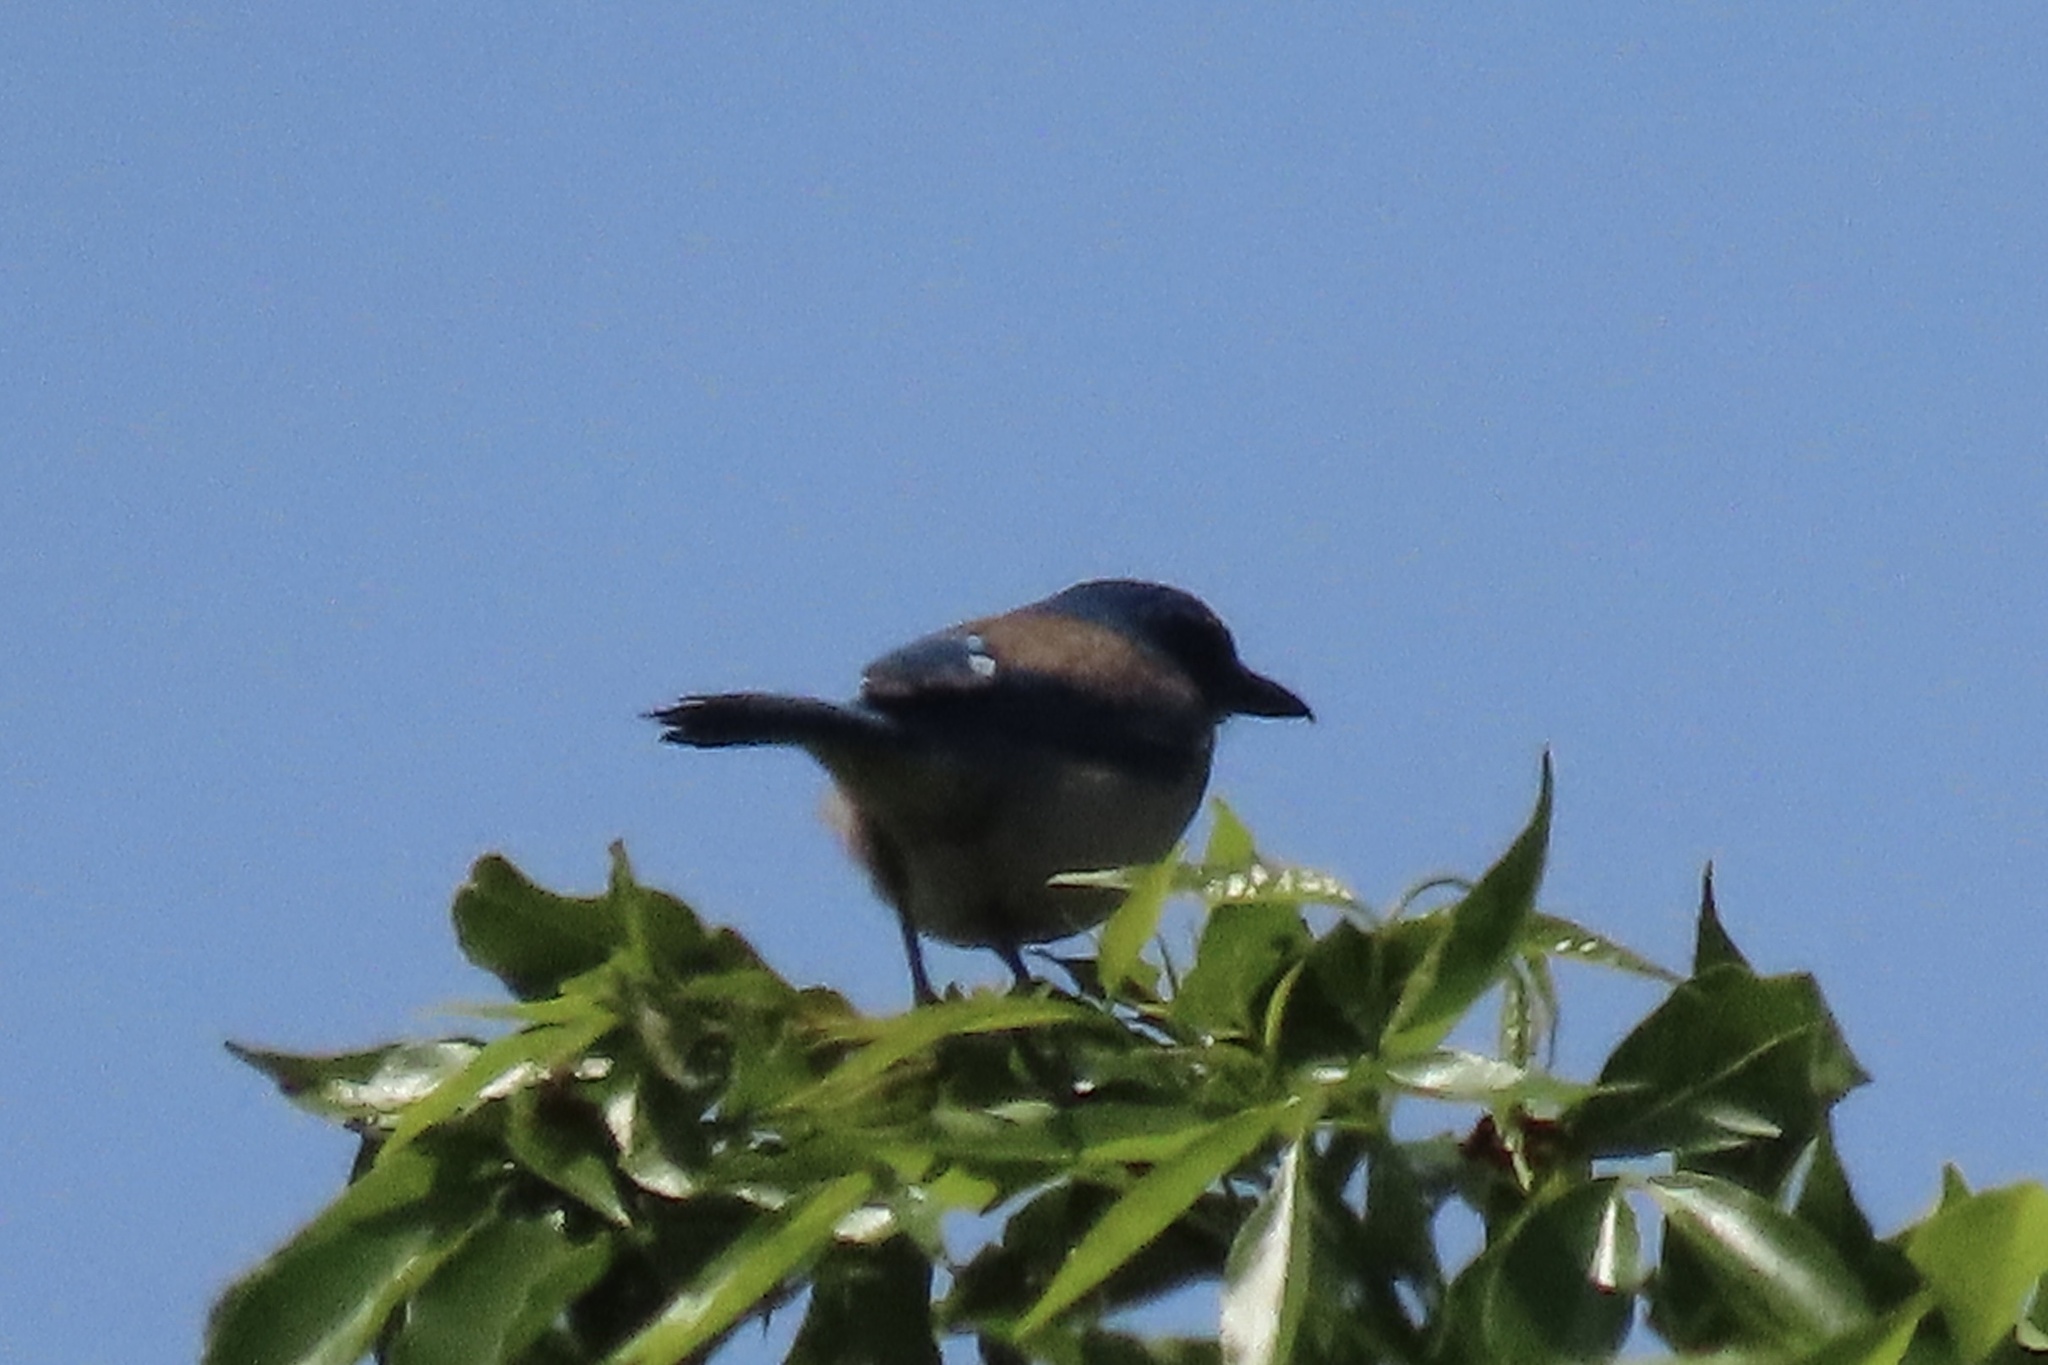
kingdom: Animalia
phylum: Chordata
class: Aves
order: Passeriformes
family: Corvidae
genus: Aphelocoma
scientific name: Aphelocoma californica
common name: California scrub-jay
